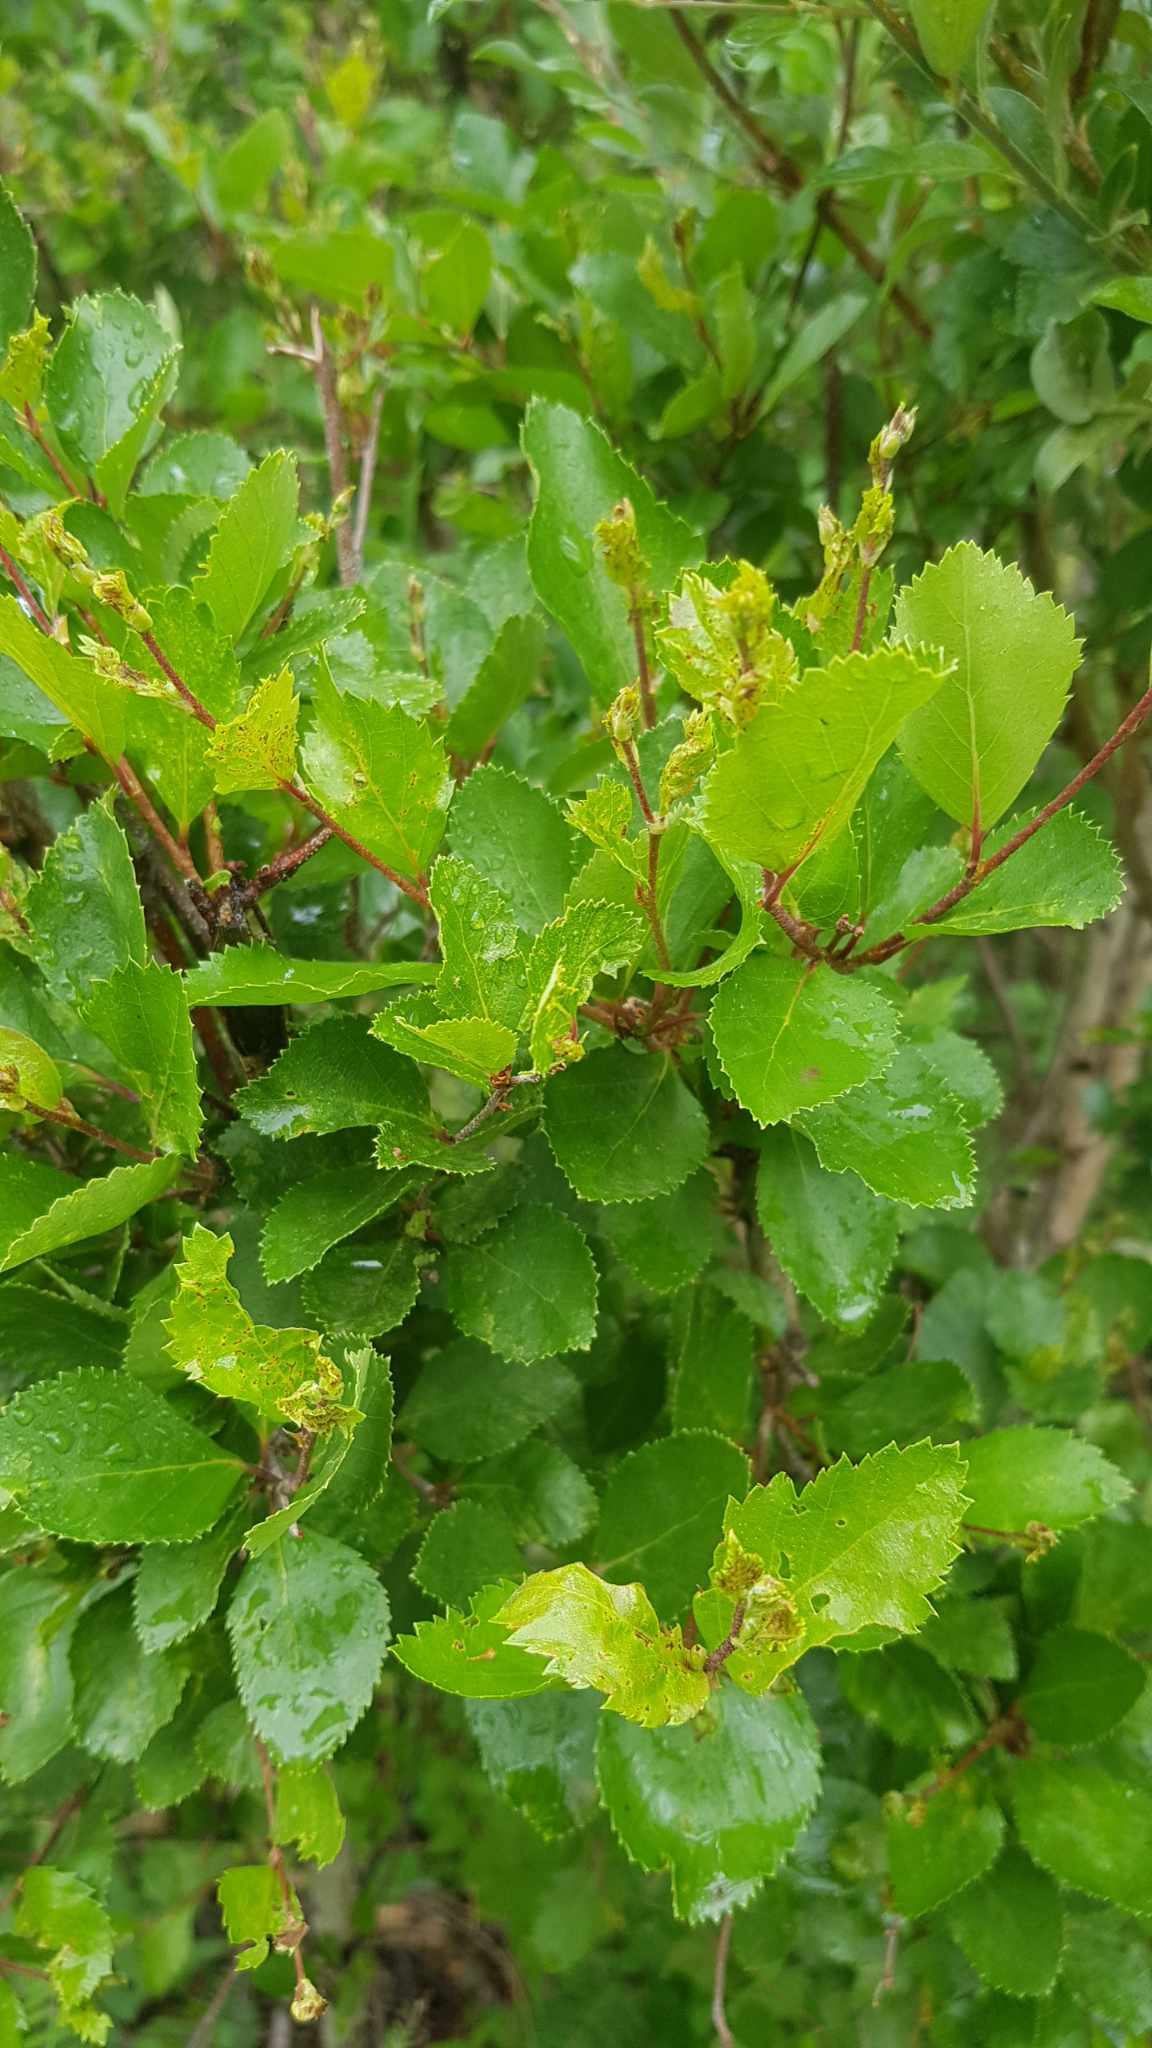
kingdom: Plantae
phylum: Tracheophyta
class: Magnoliopsida
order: Fagales
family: Betulaceae
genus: Betula
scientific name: Betula humilis
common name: Shrubby birch
